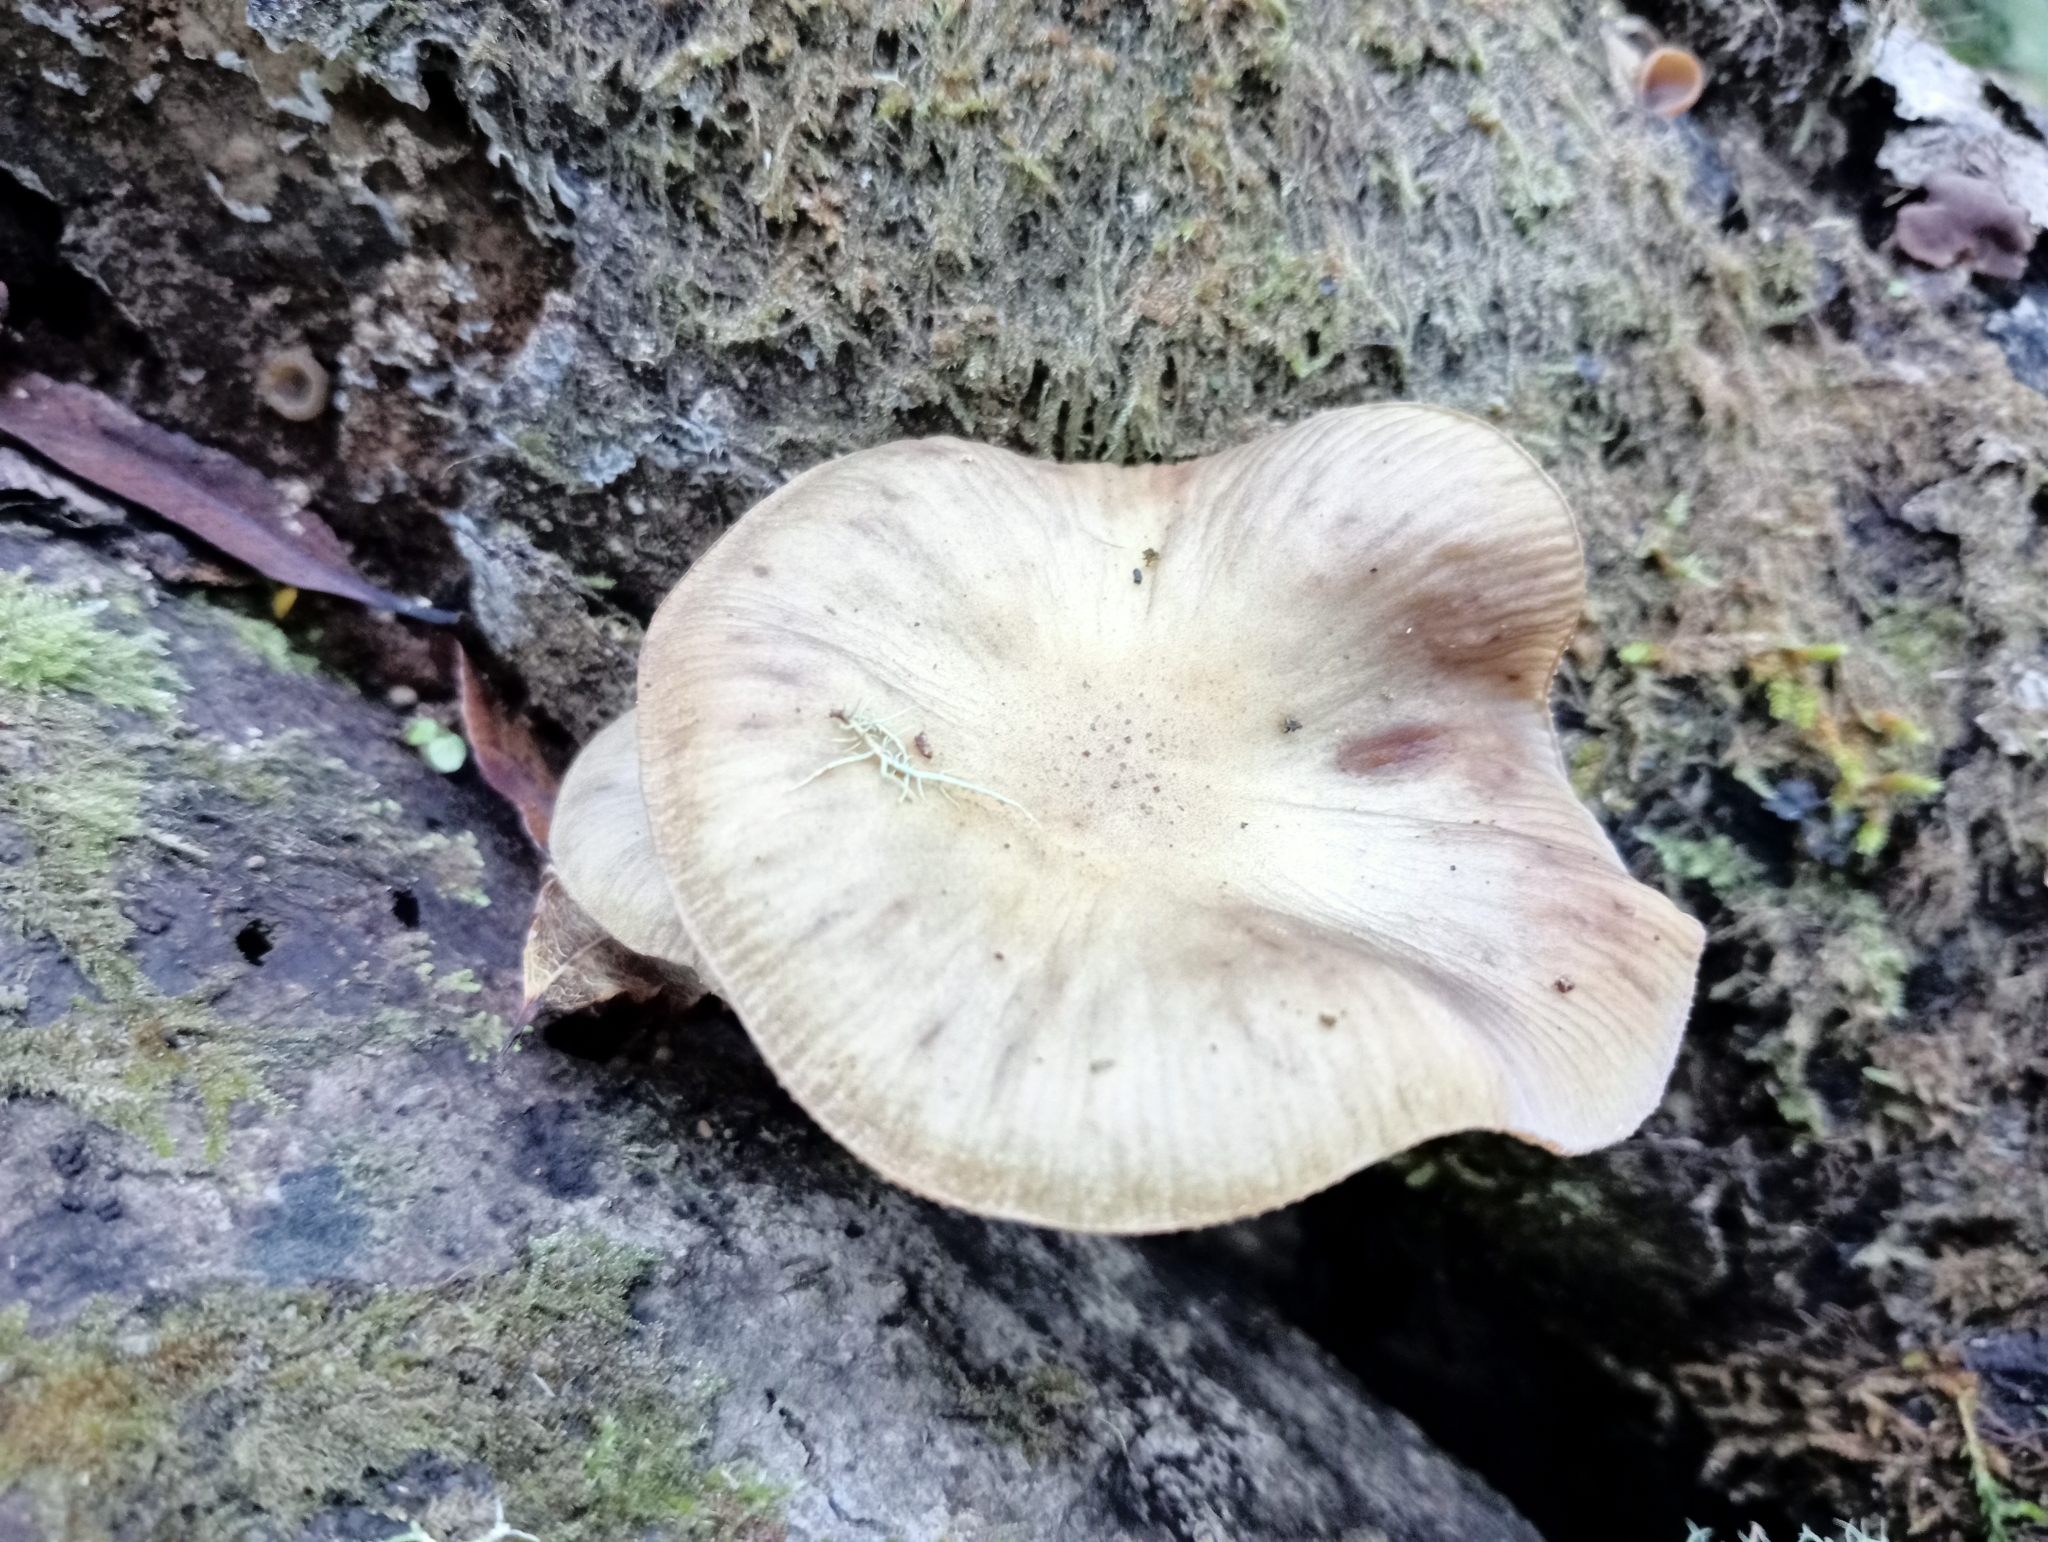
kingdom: Fungi
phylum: Basidiomycota
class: Agaricomycetes
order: Agaricales
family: Physalacriaceae
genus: Armillaria
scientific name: Armillaria novae-zelandiae
